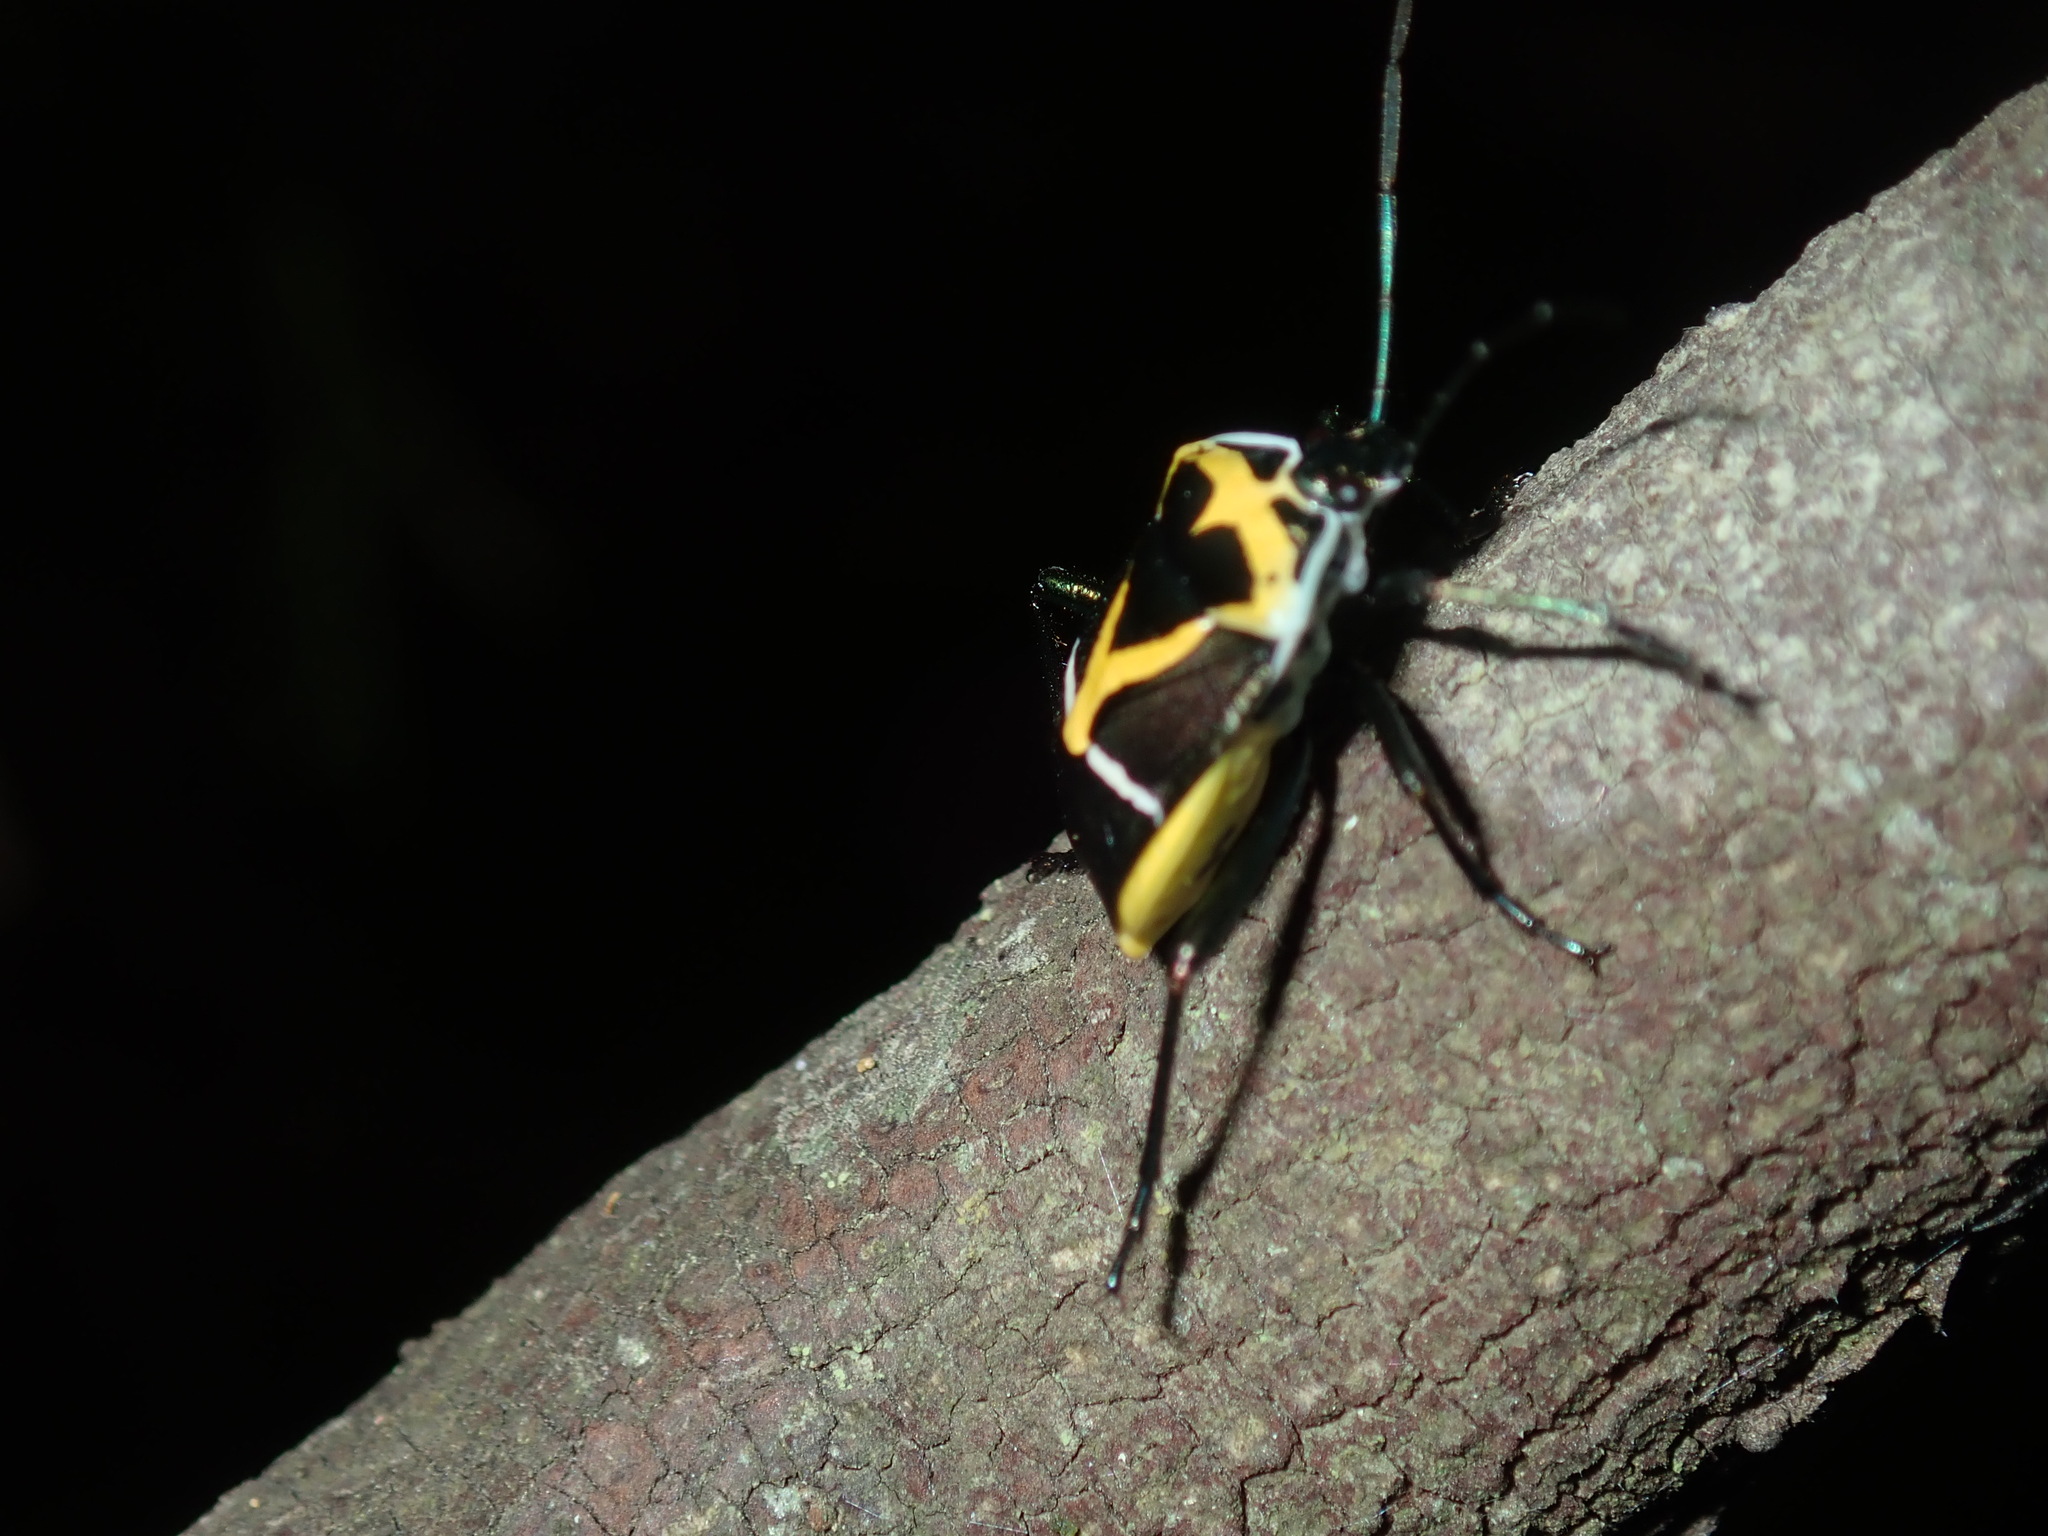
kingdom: Animalia
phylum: Arthropoda
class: Insecta
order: Hemiptera
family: Pentatomidae
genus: Commius
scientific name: Commius
